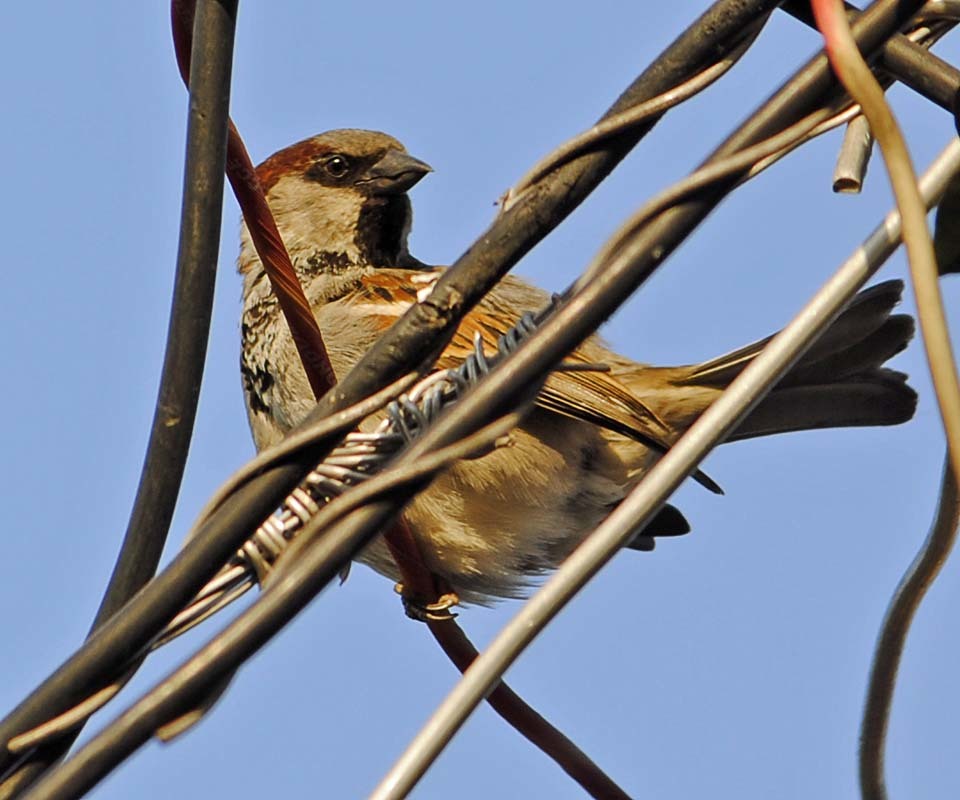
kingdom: Animalia
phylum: Chordata
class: Aves
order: Passeriformes
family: Passeridae
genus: Passer
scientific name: Passer domesticus
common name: House sparrow
